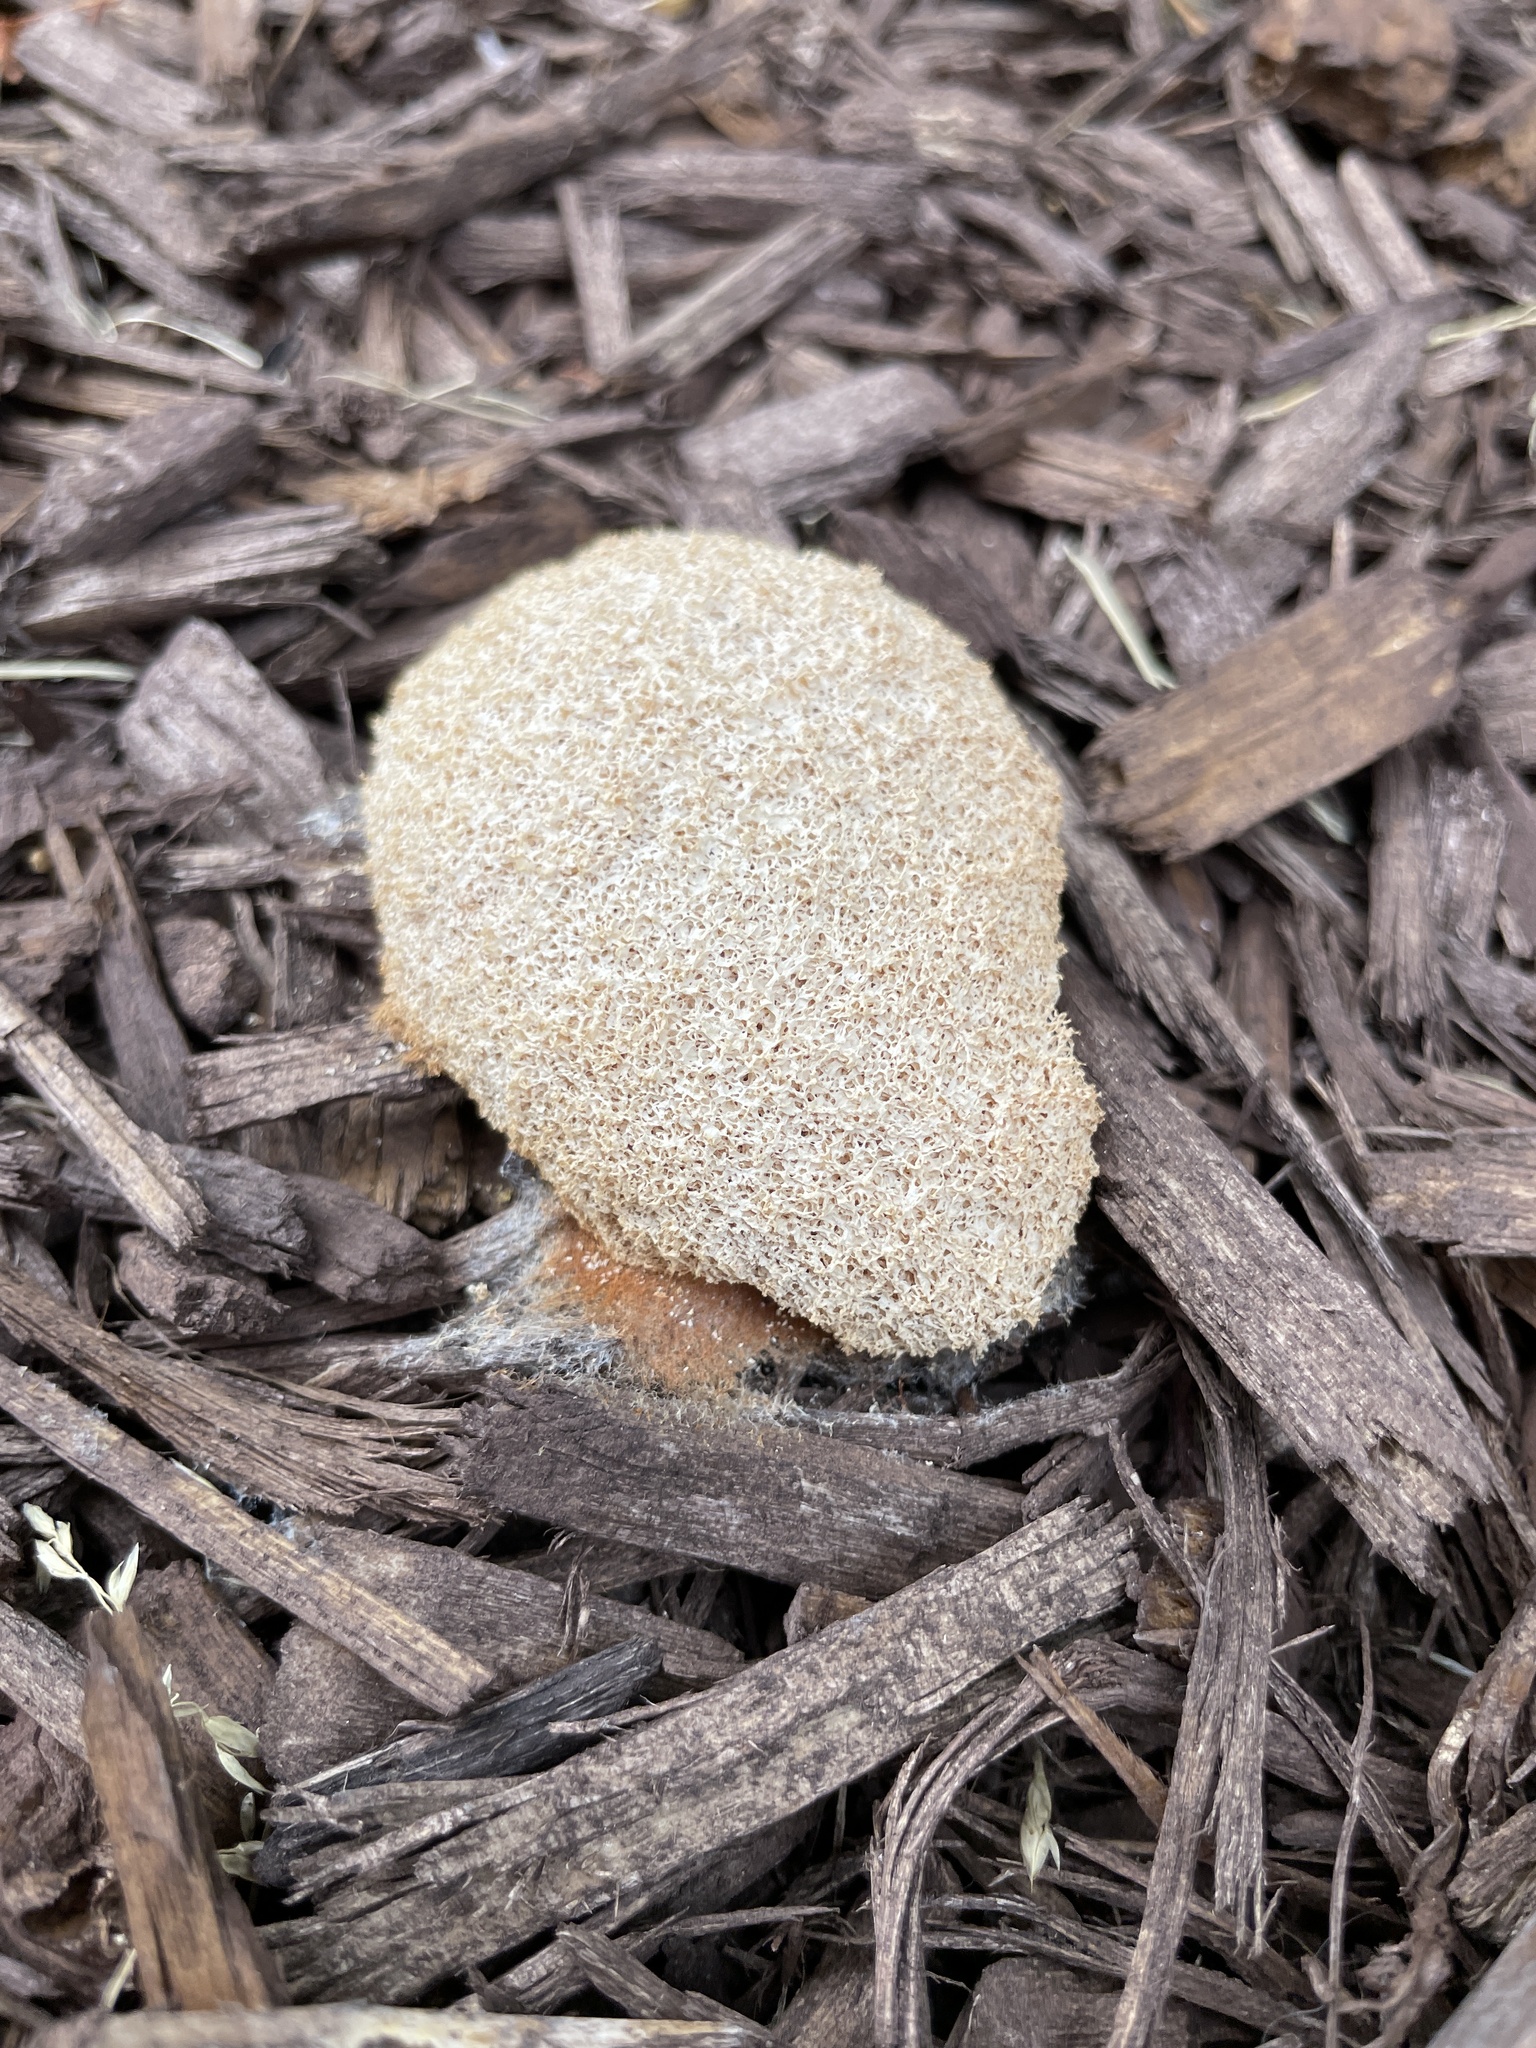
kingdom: Protozoa
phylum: Mycetozoa
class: Myxomycetes
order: Physarales
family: Physaraceae
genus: Fuligo
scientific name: Fuligo septica
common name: Dog vomit slime mold
